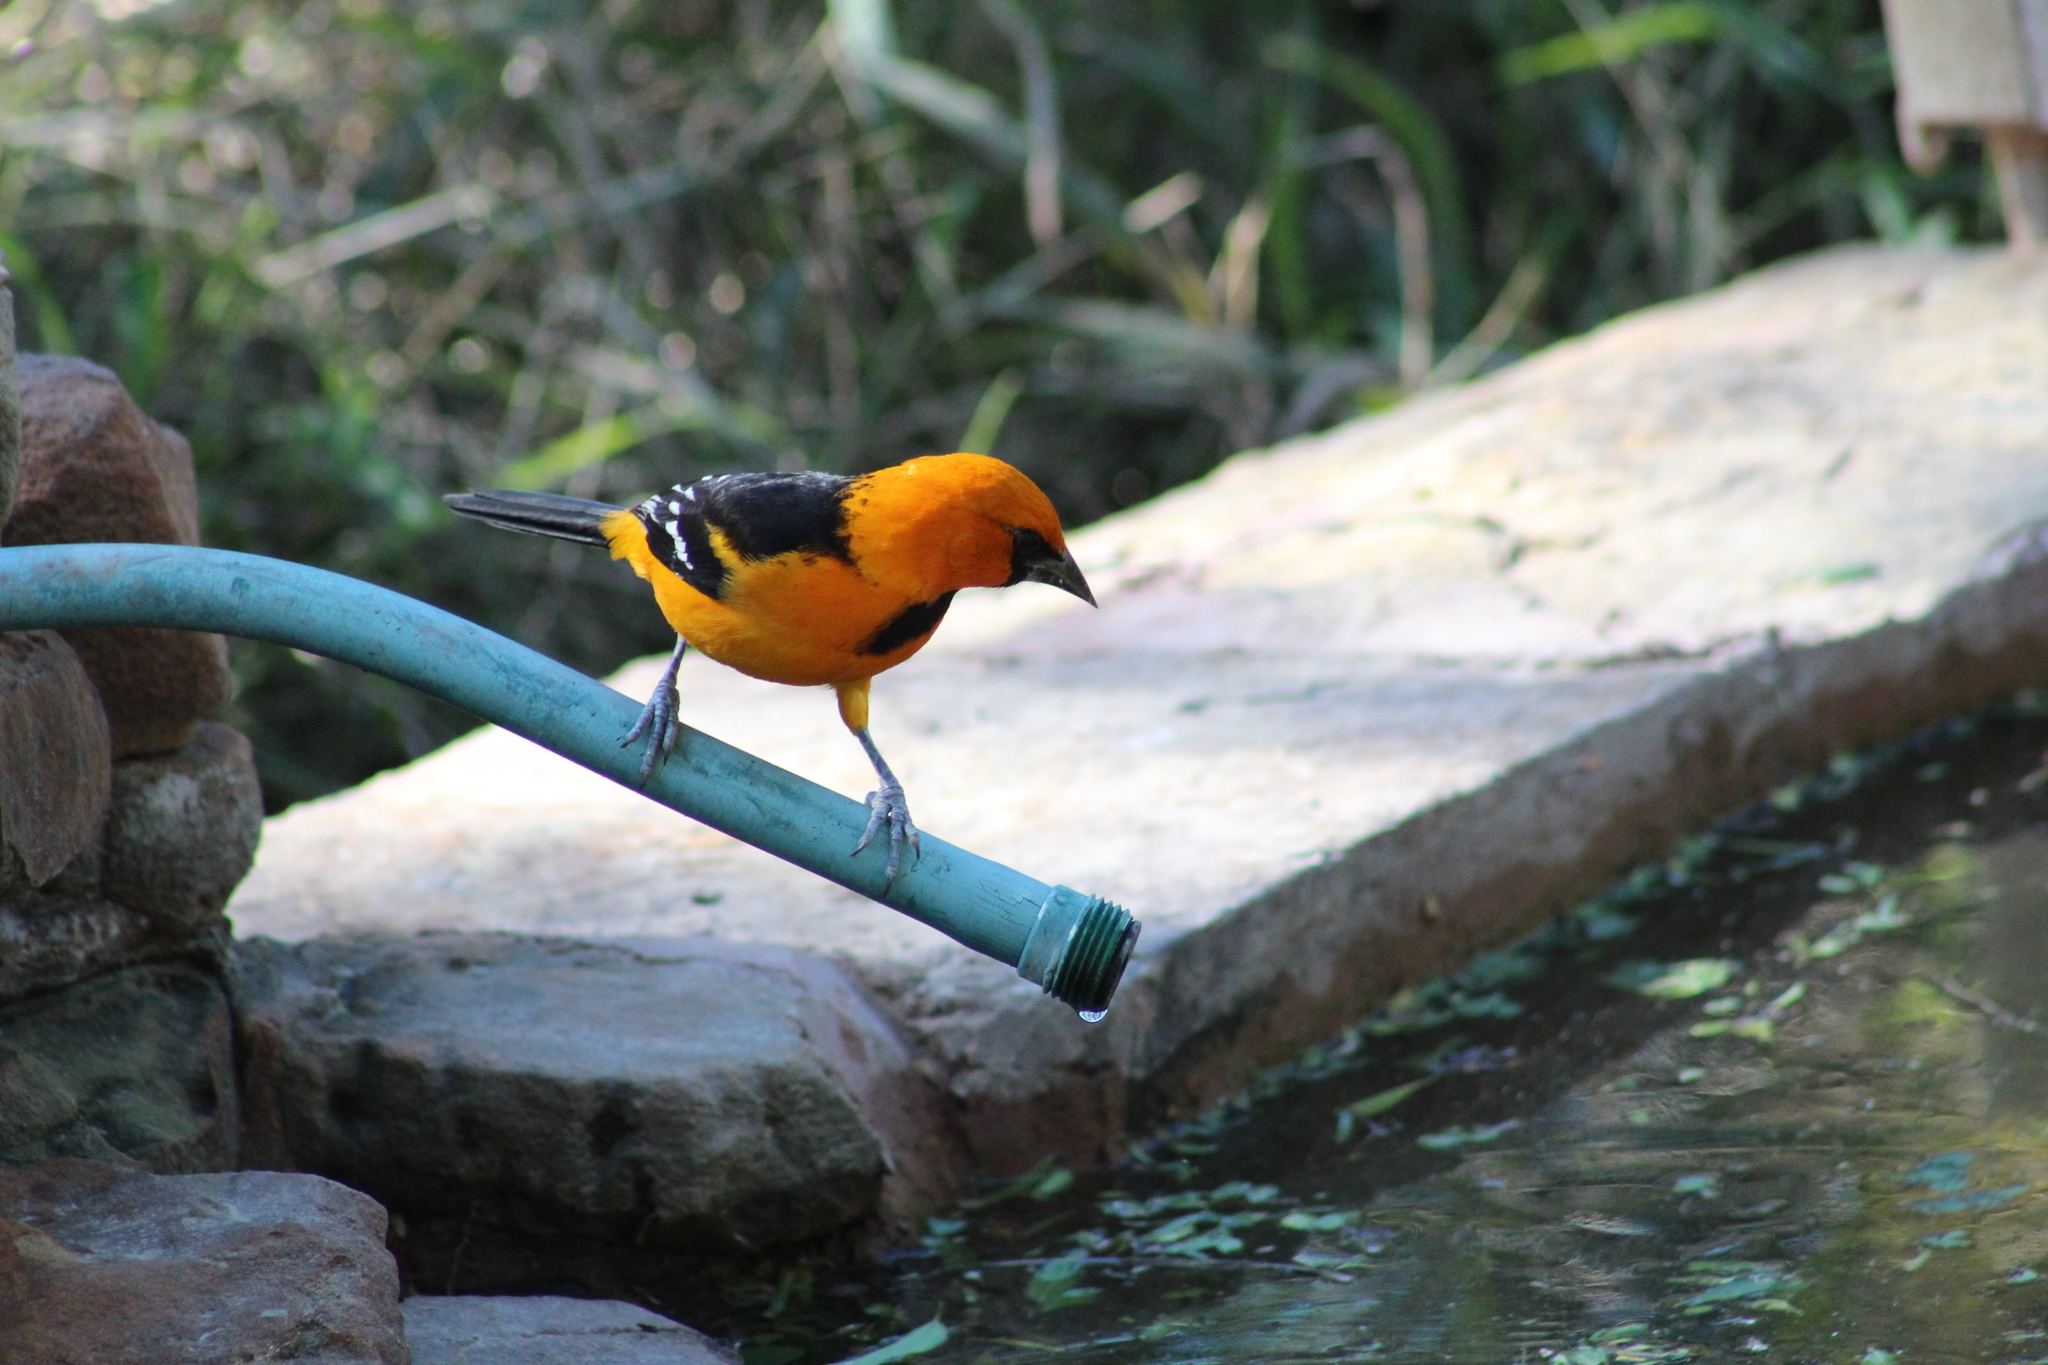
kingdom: Animalia
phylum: Chordata
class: Aves
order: Passeriformes
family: Icteridae
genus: Icterus
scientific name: Icterus gularis
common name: Altamira oriole
